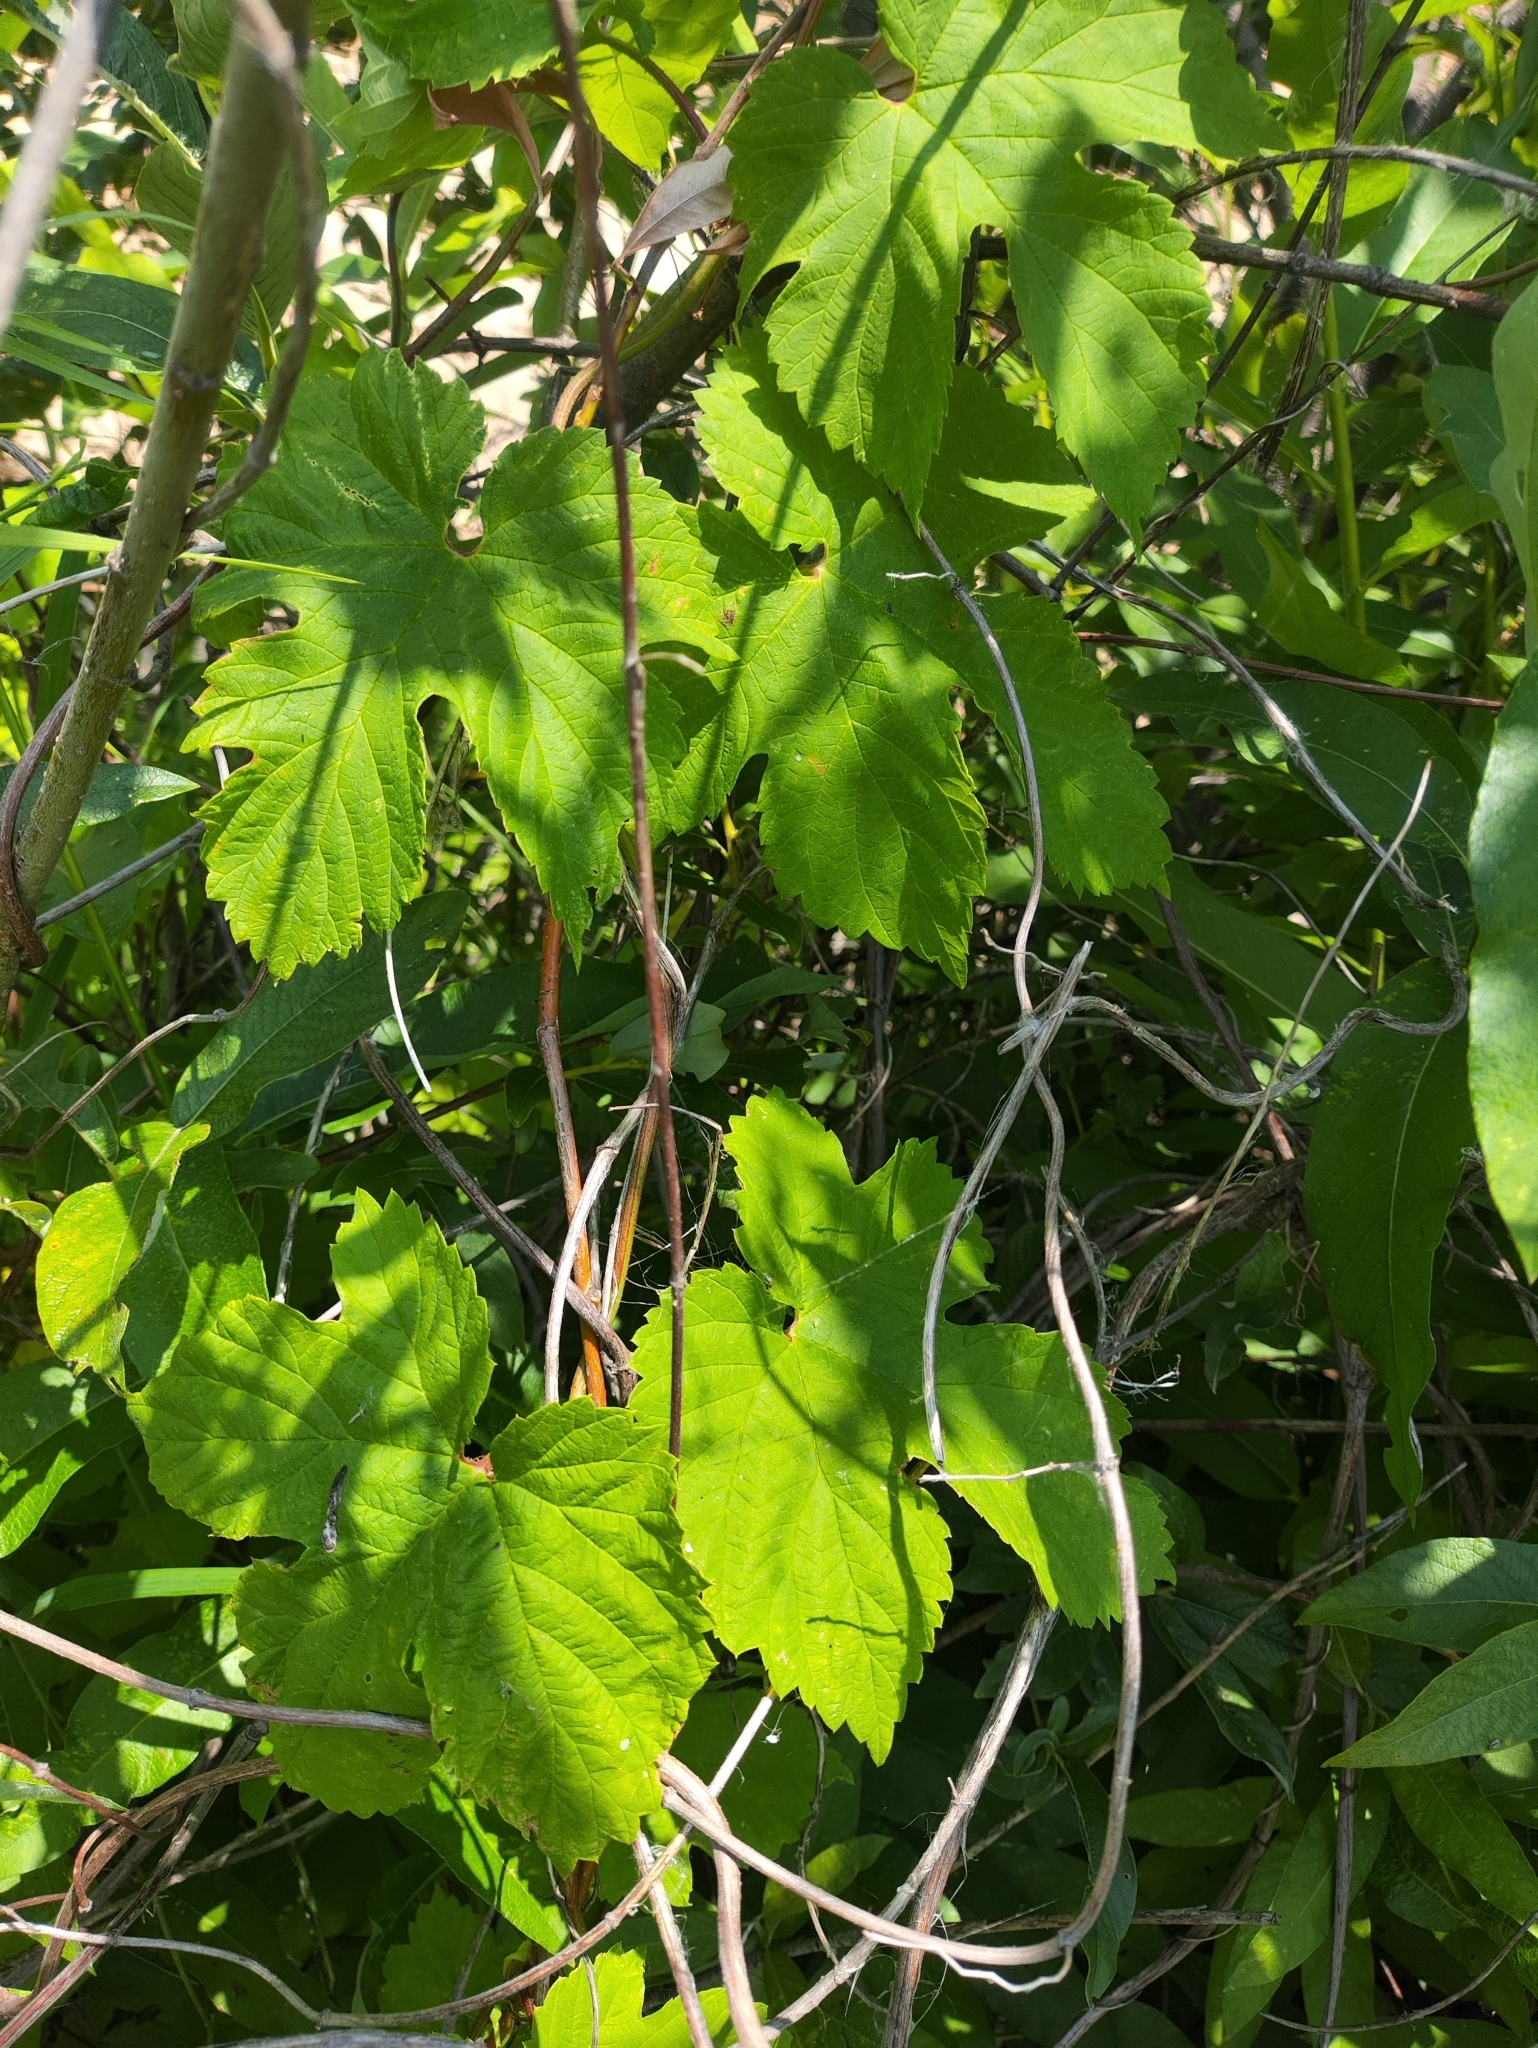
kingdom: Plantae
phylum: Tracheophyta
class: Magnoliopsida
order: Rosales
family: Cannabaceae
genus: Humulus
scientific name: Humulus lupulus
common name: Hop
